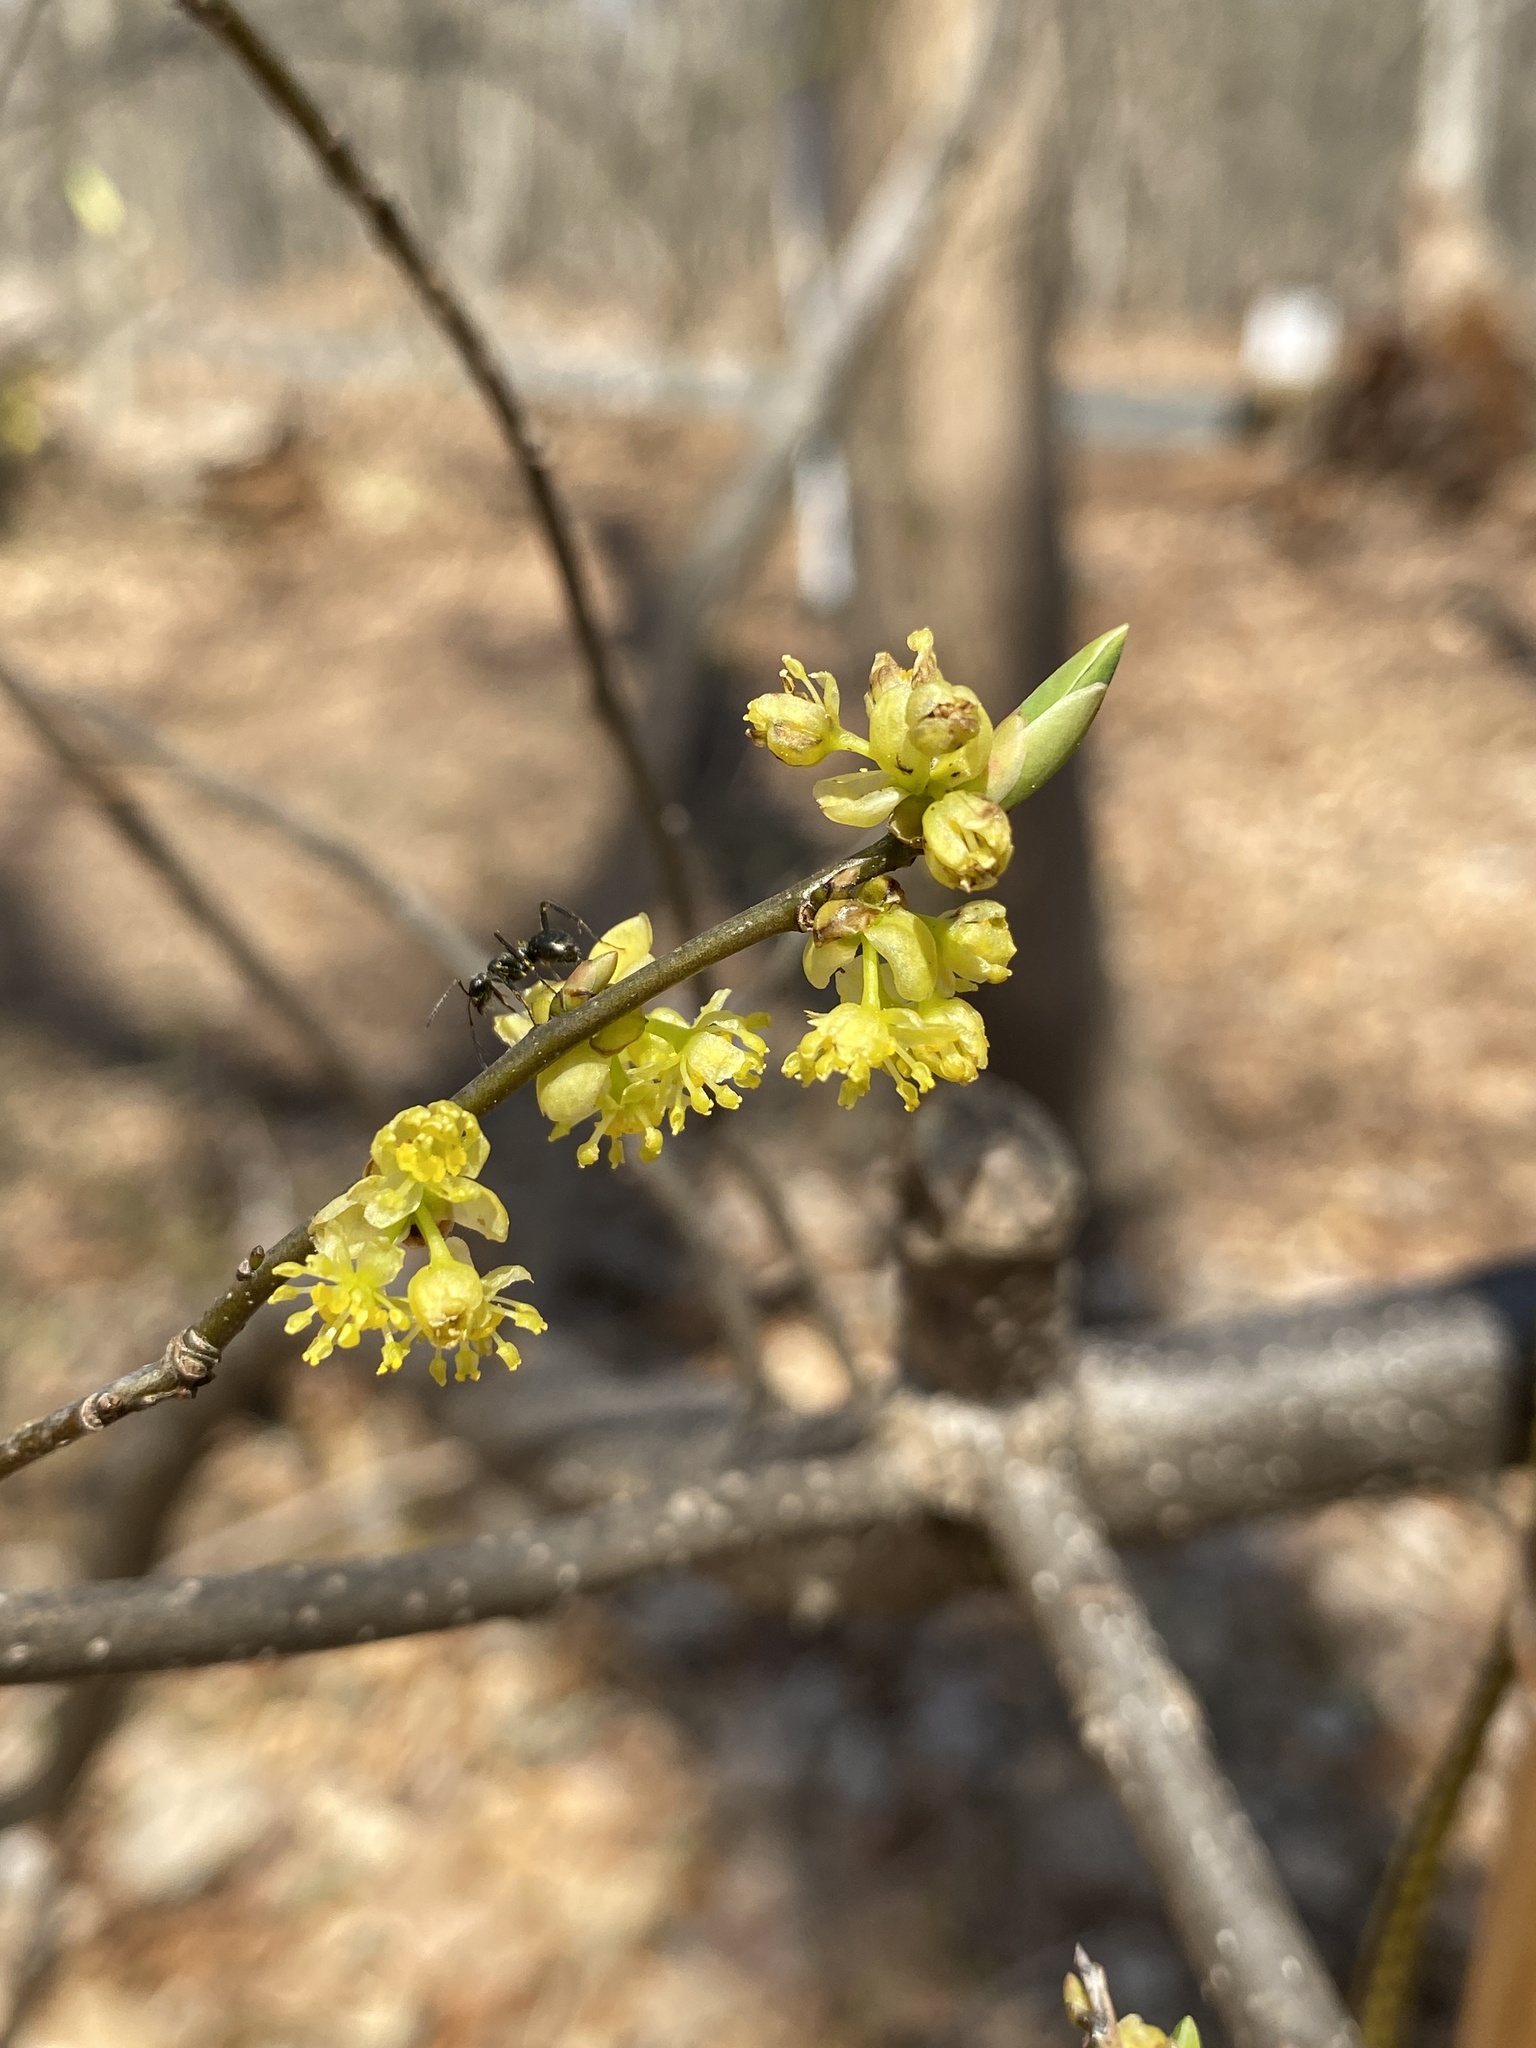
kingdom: Plantae
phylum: Tracheophyta
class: Magnoliopsida
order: Laurales
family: Lauraceae
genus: Lindera
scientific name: Lindera benzoin
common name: Spicebush
